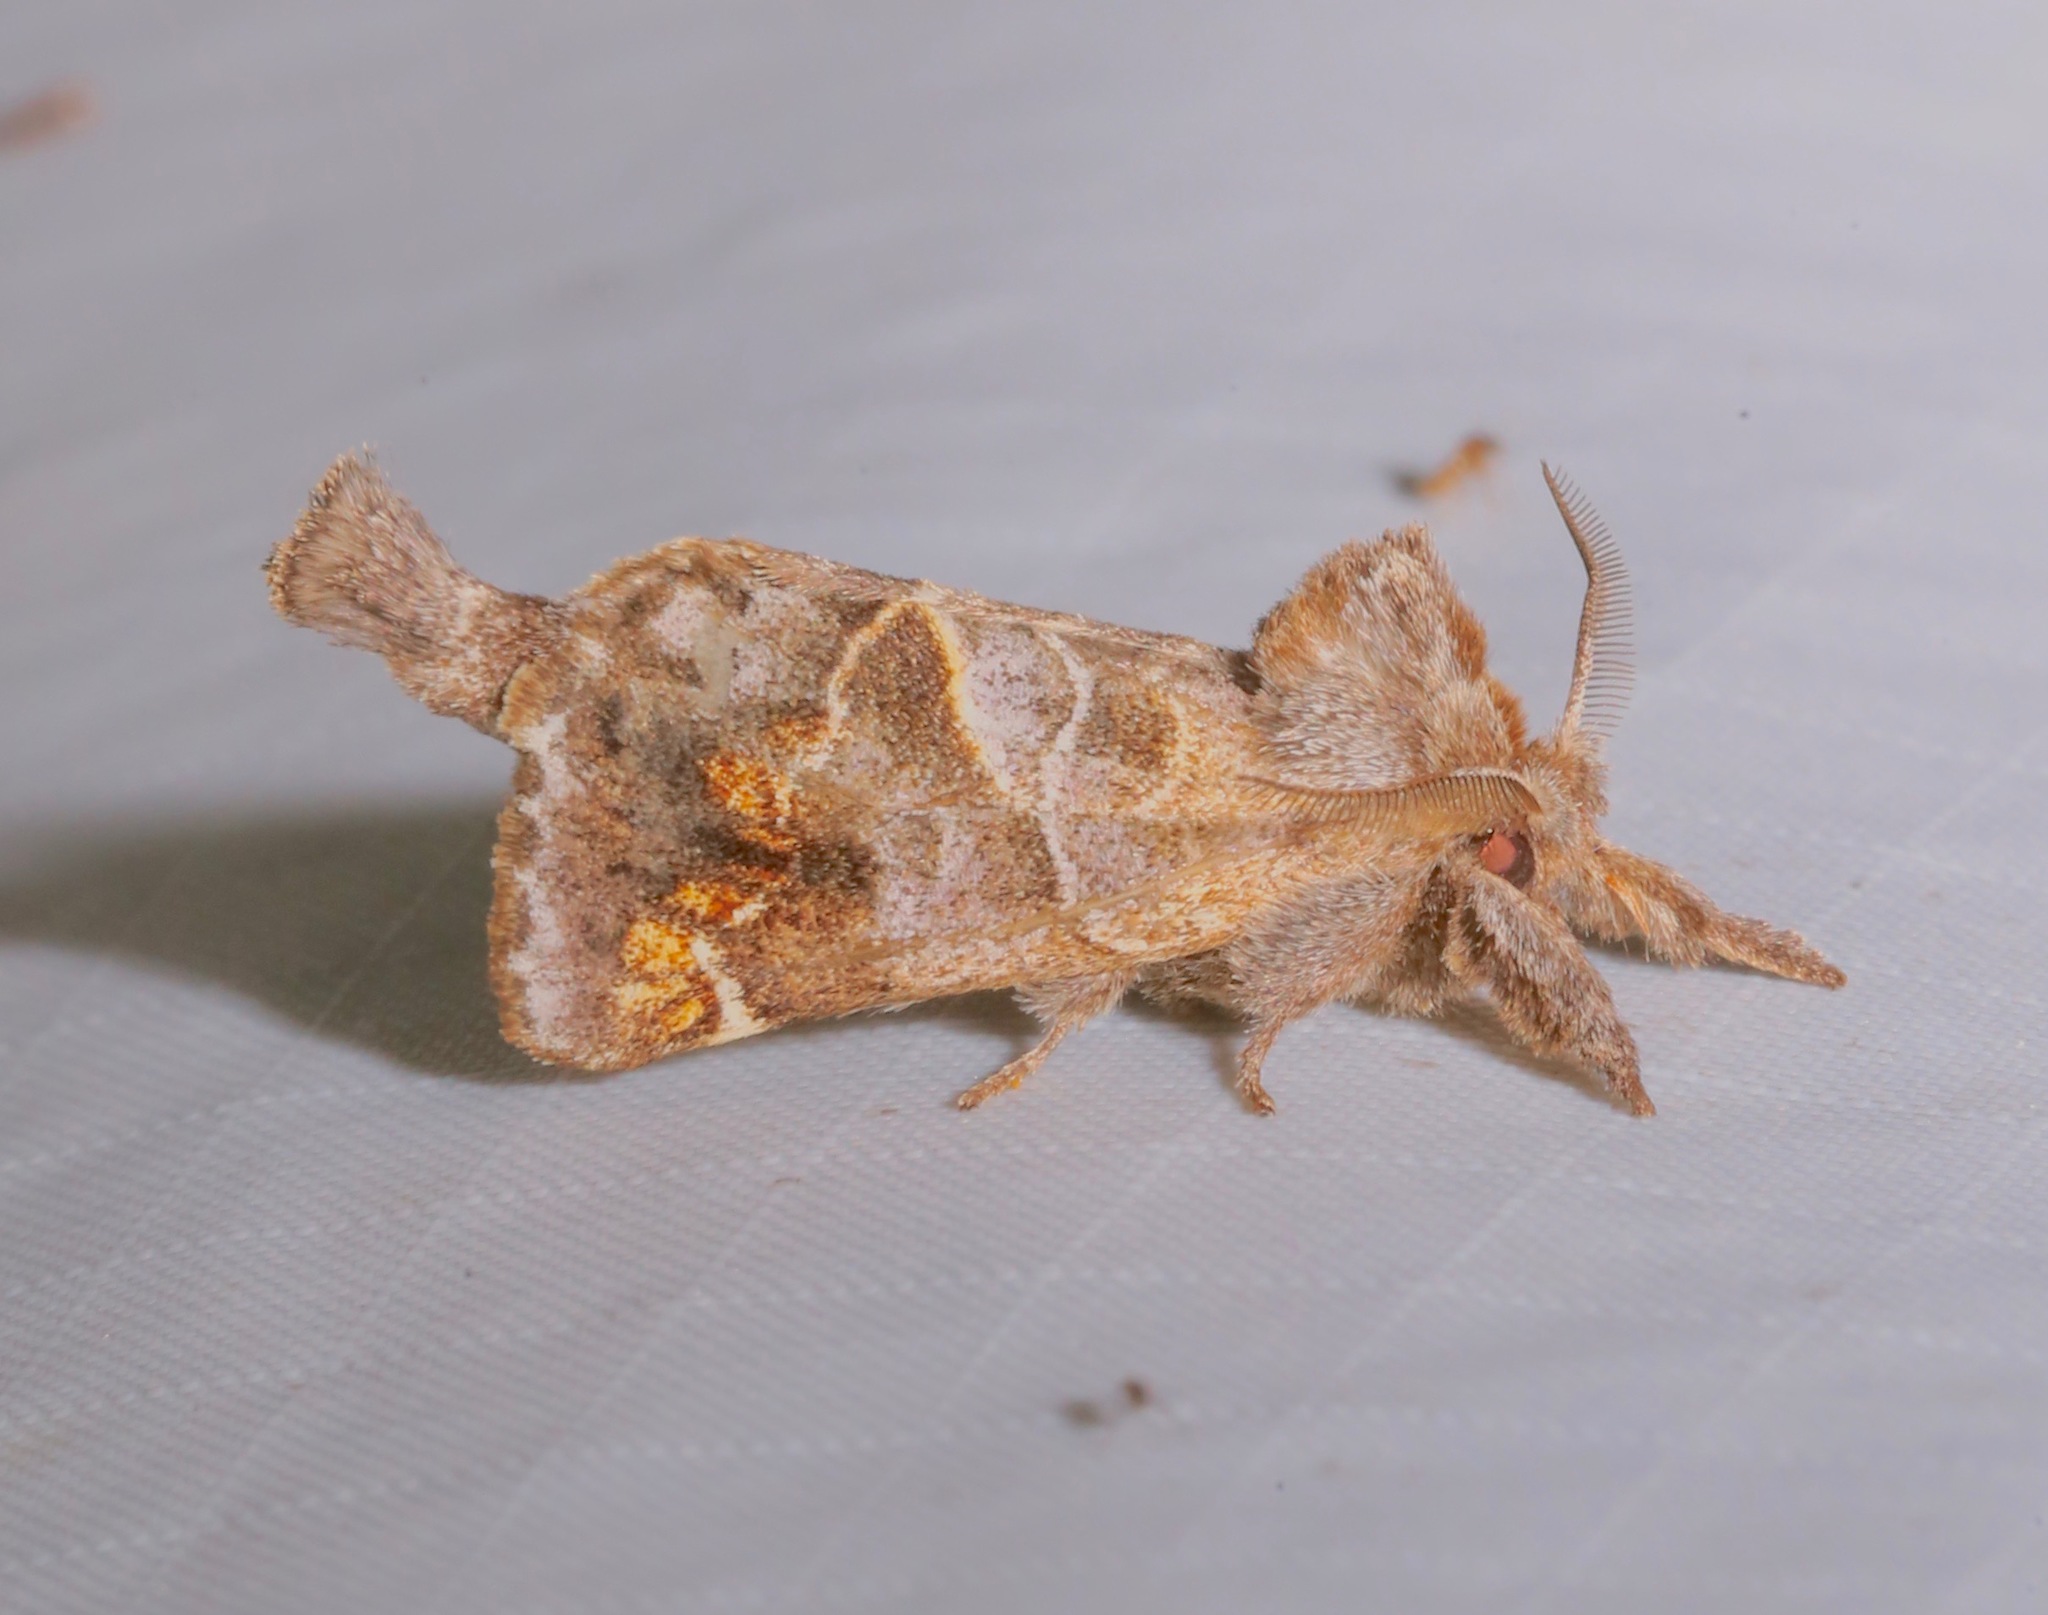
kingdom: Animalia
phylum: Arthropoda
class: Insecta
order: Lepidoptera
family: Notodontidae
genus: Clostera
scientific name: Clostera strigosa
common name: Striped chocolate-tip moth
